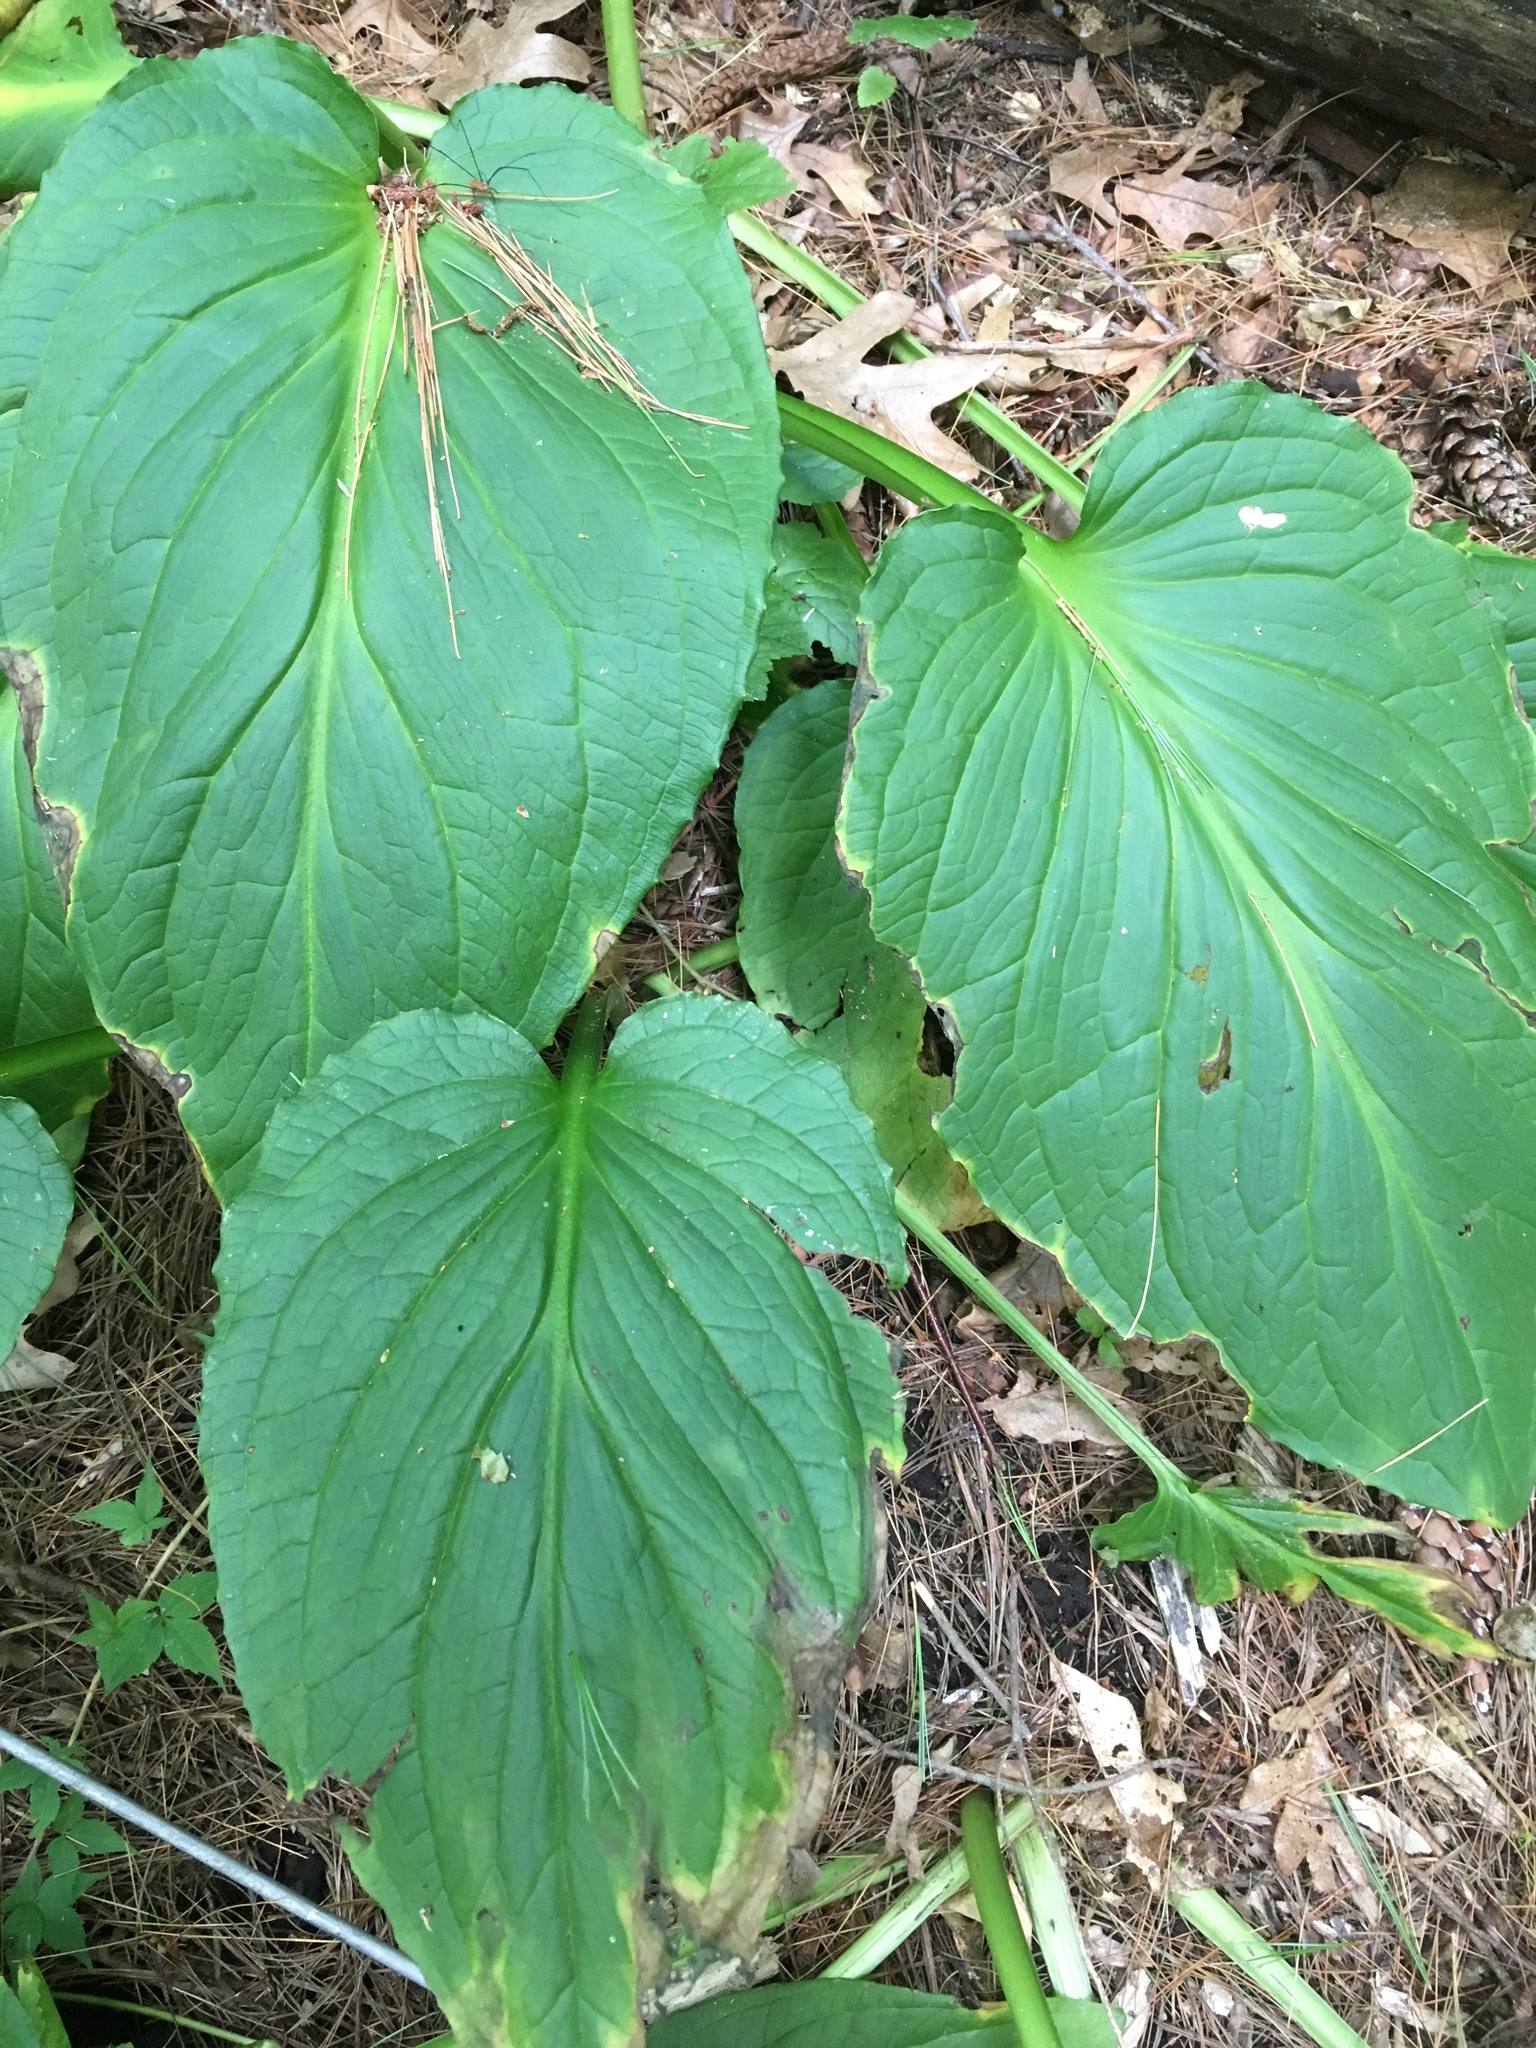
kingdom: Plantae
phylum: Tracheophyta
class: Liliopsida
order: Alismatales
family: Araceae
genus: Symplocarpus
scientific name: Symplocarpus foetidus
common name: Eastern skunk cabbage
